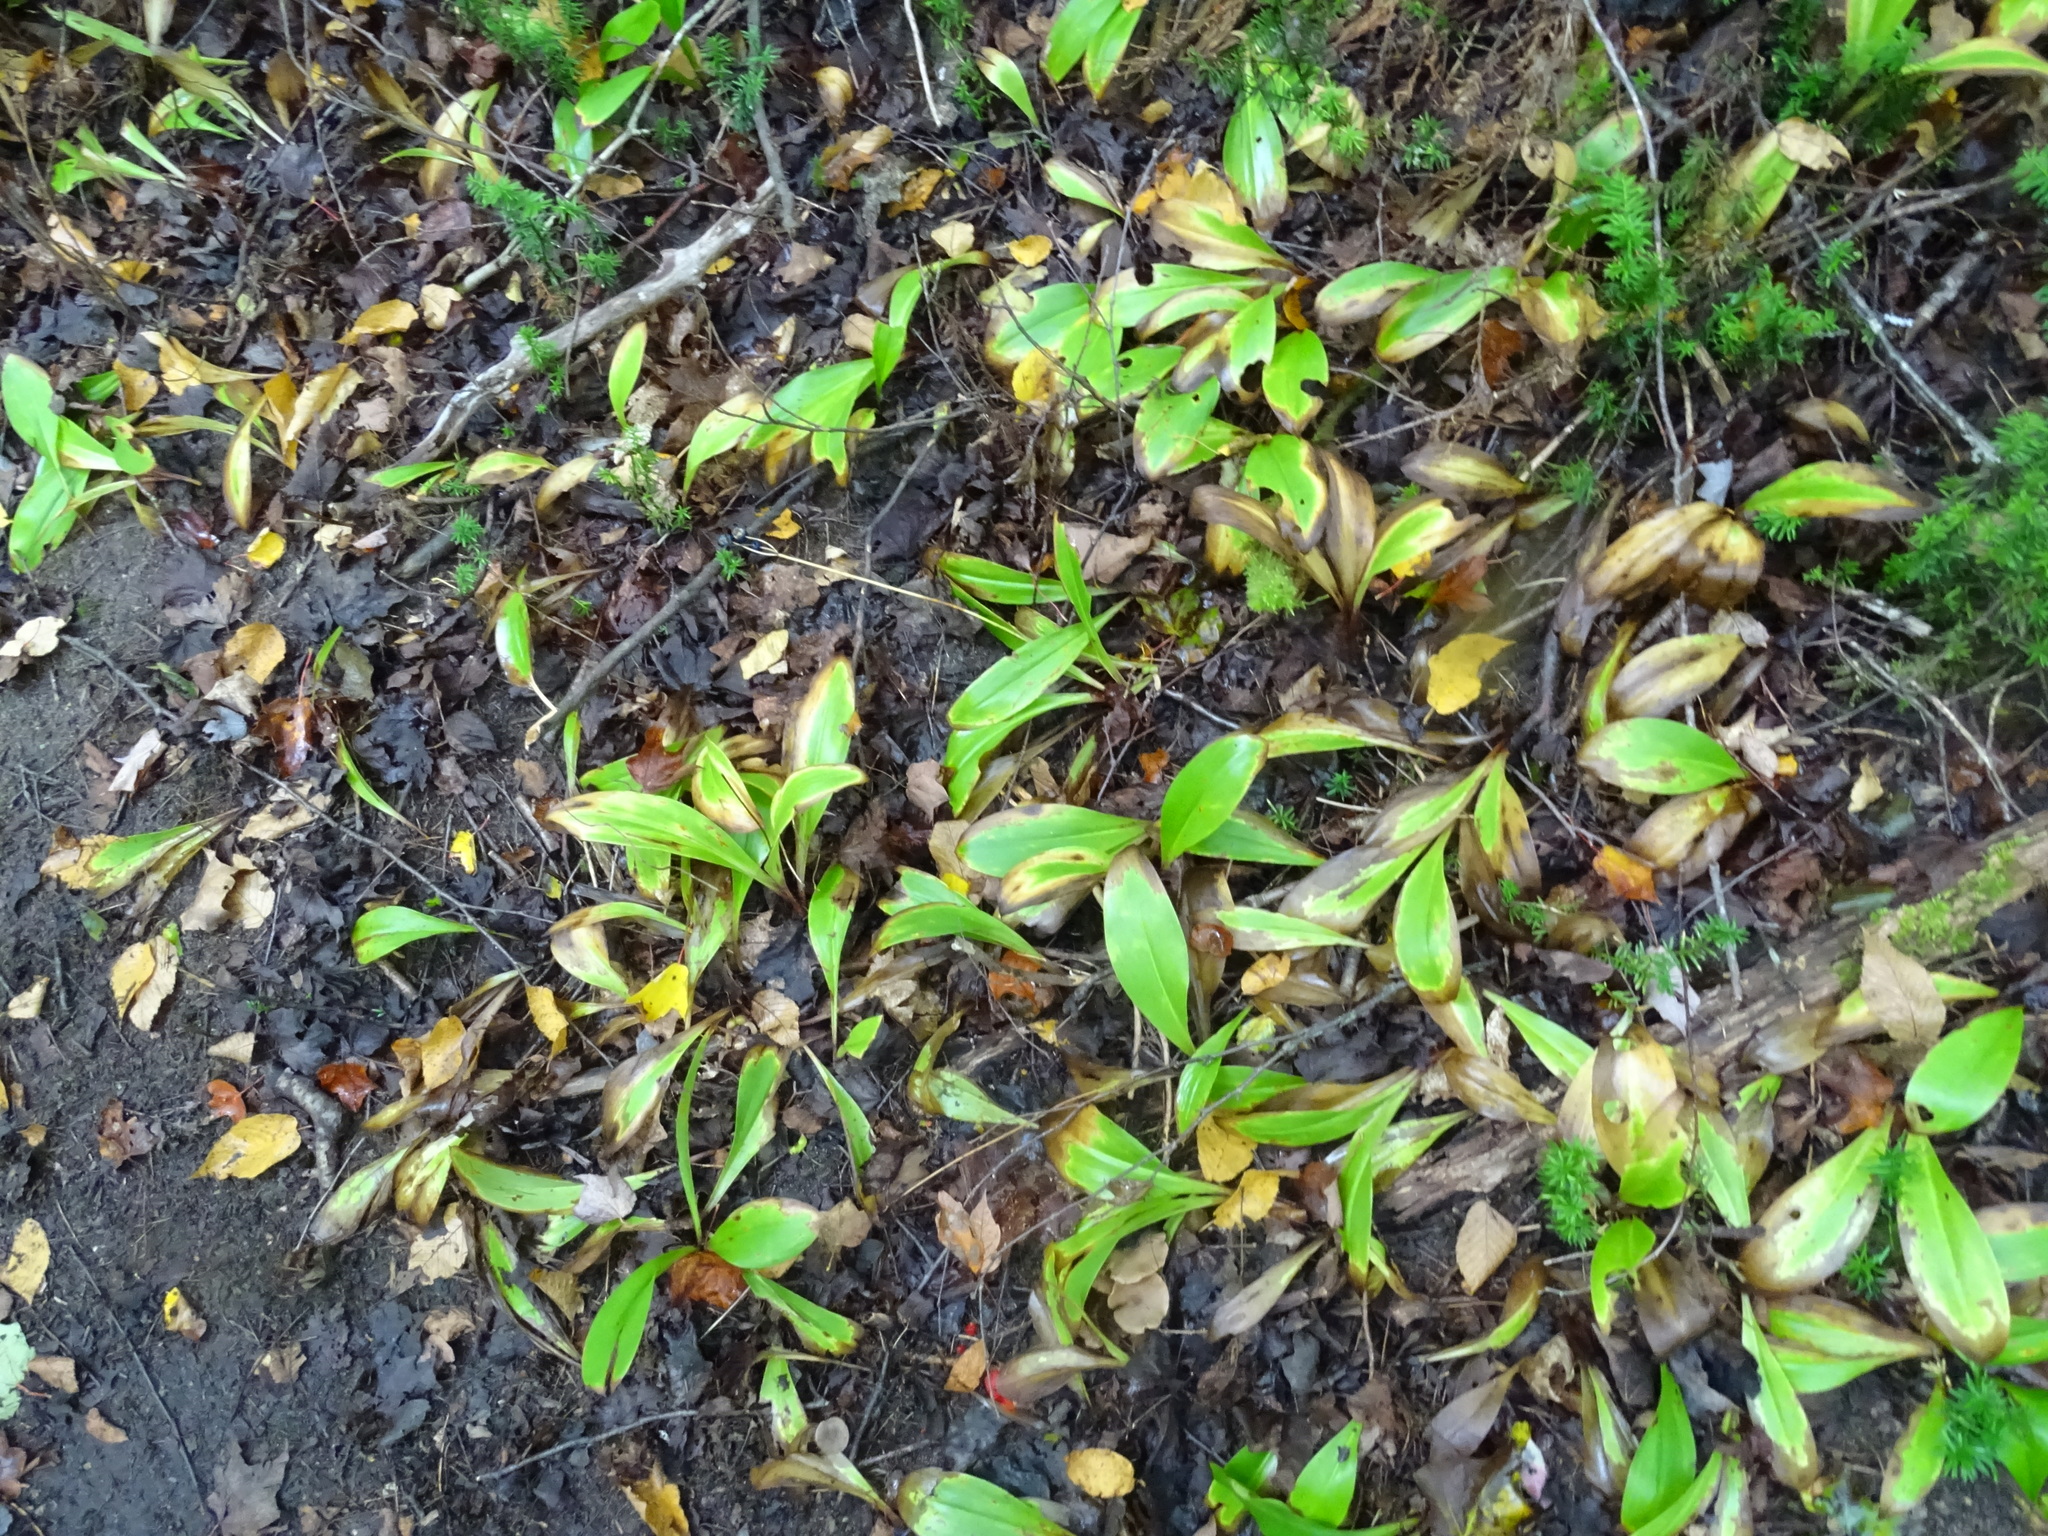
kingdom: Plantae
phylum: Tracheophyta
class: Liliopsida
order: Liliales
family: Liliaceae
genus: Clintonia
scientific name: Clintonia borealis
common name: Yellow clintonia
